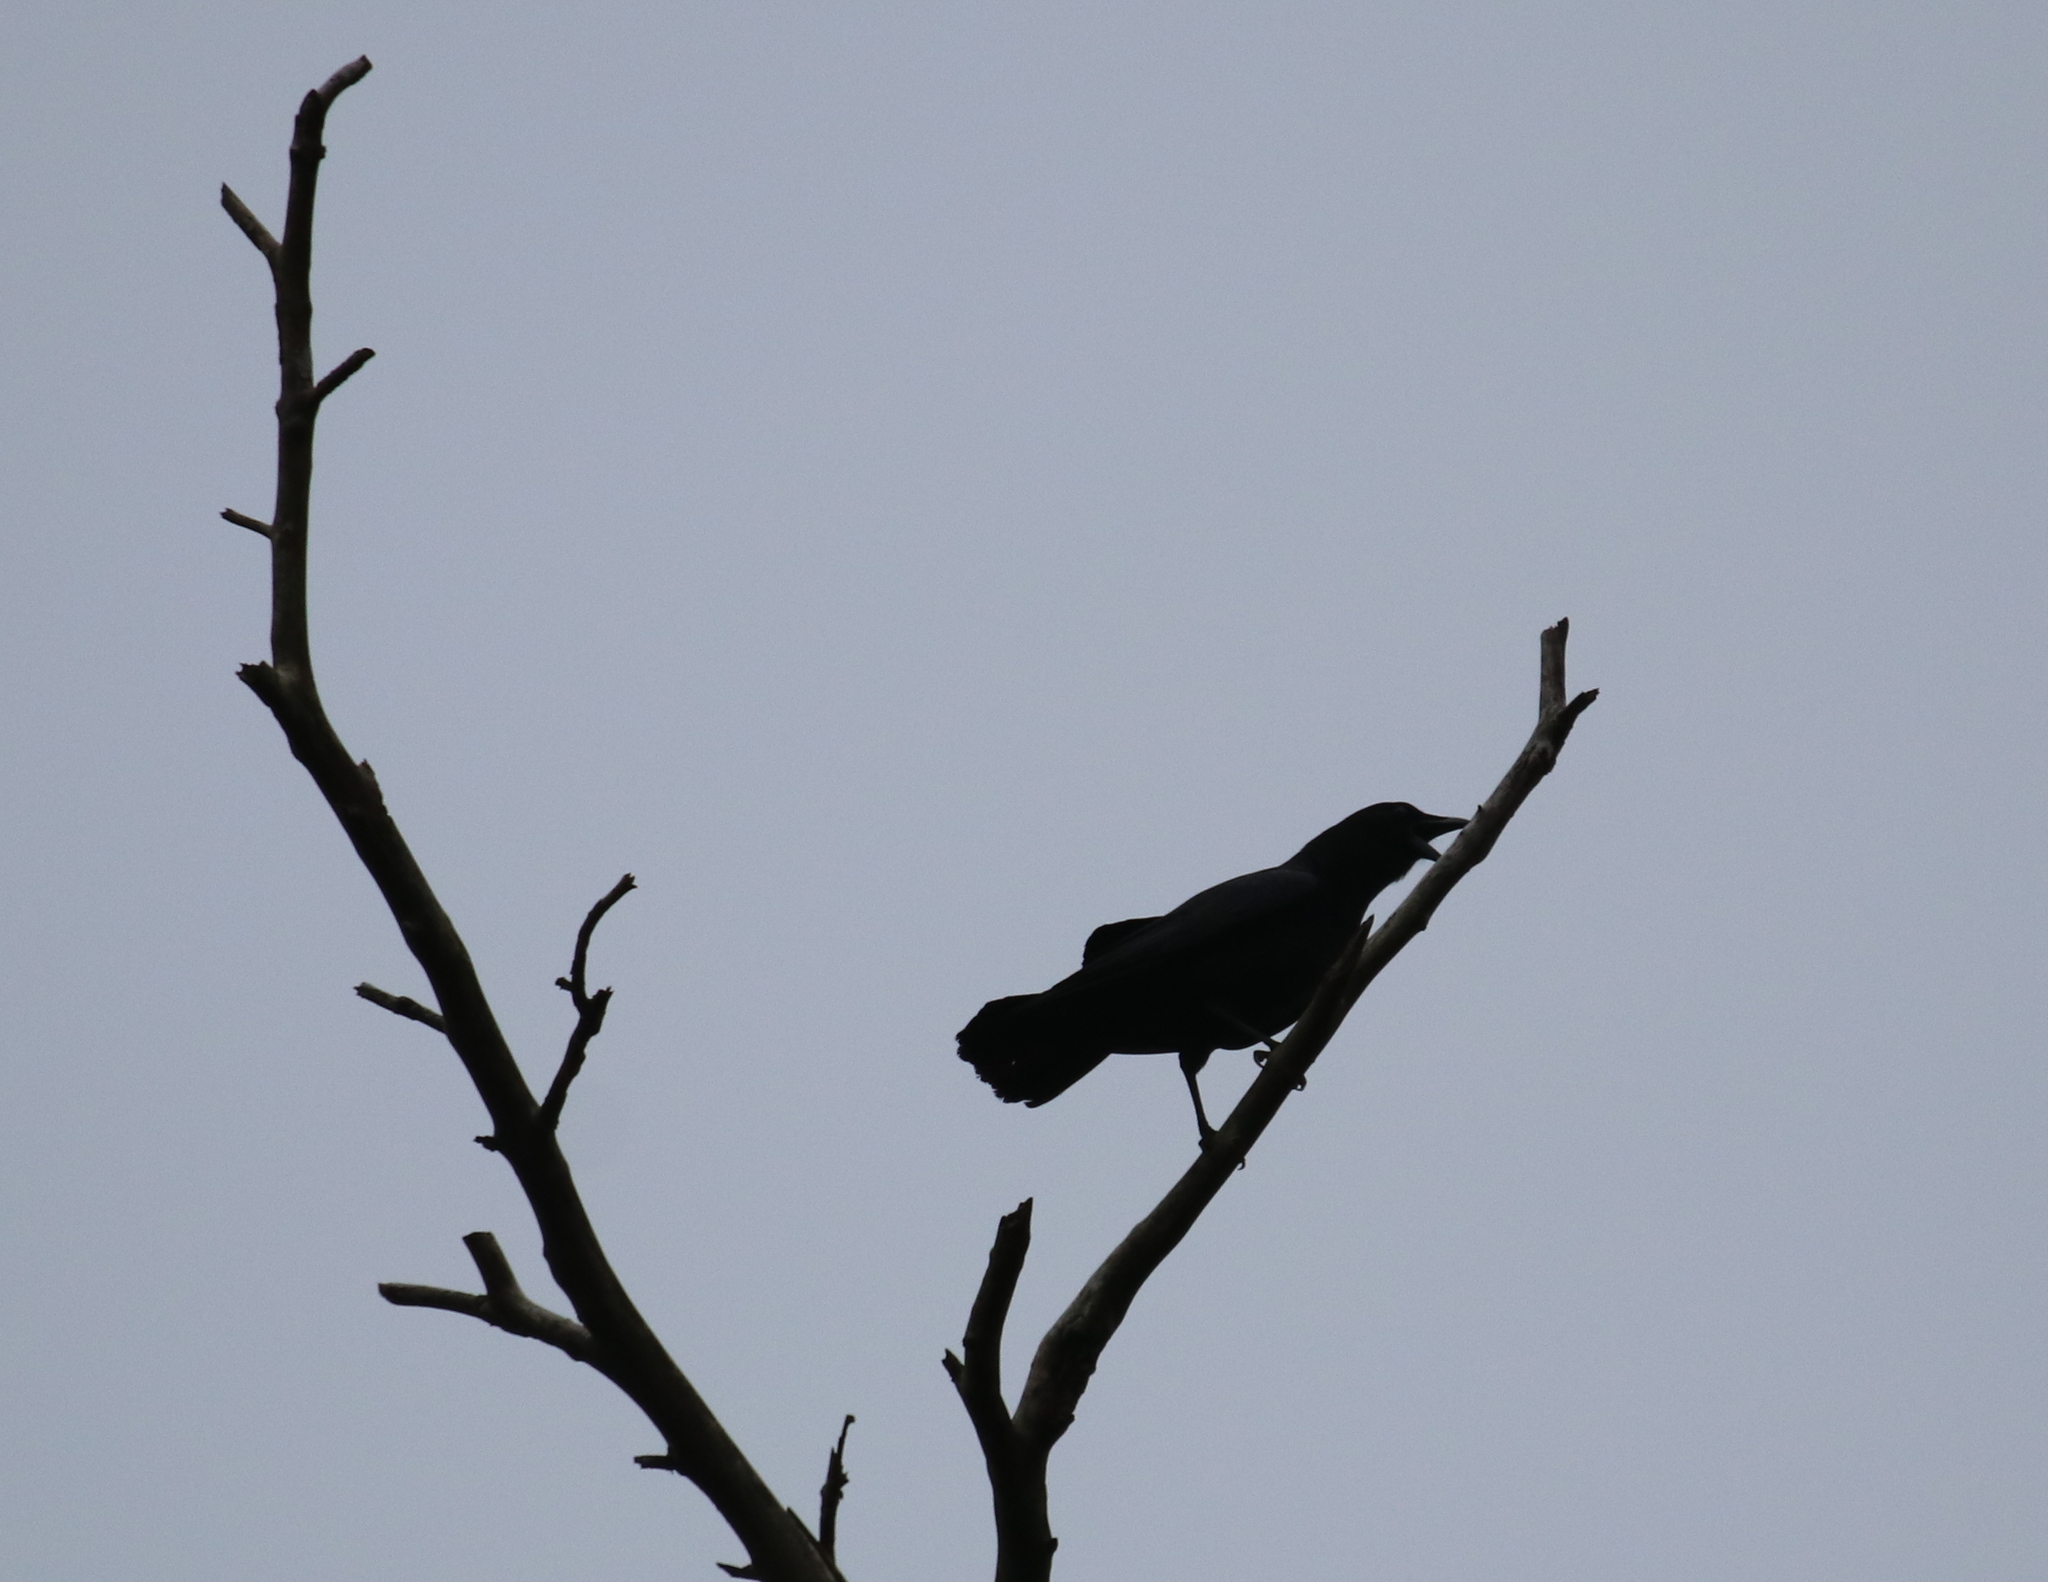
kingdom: Animalia
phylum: Chordata
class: Aves
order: Passeriformes
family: Corvidae
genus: Corvus
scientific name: Corvus brachyrhynchos
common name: American crow
